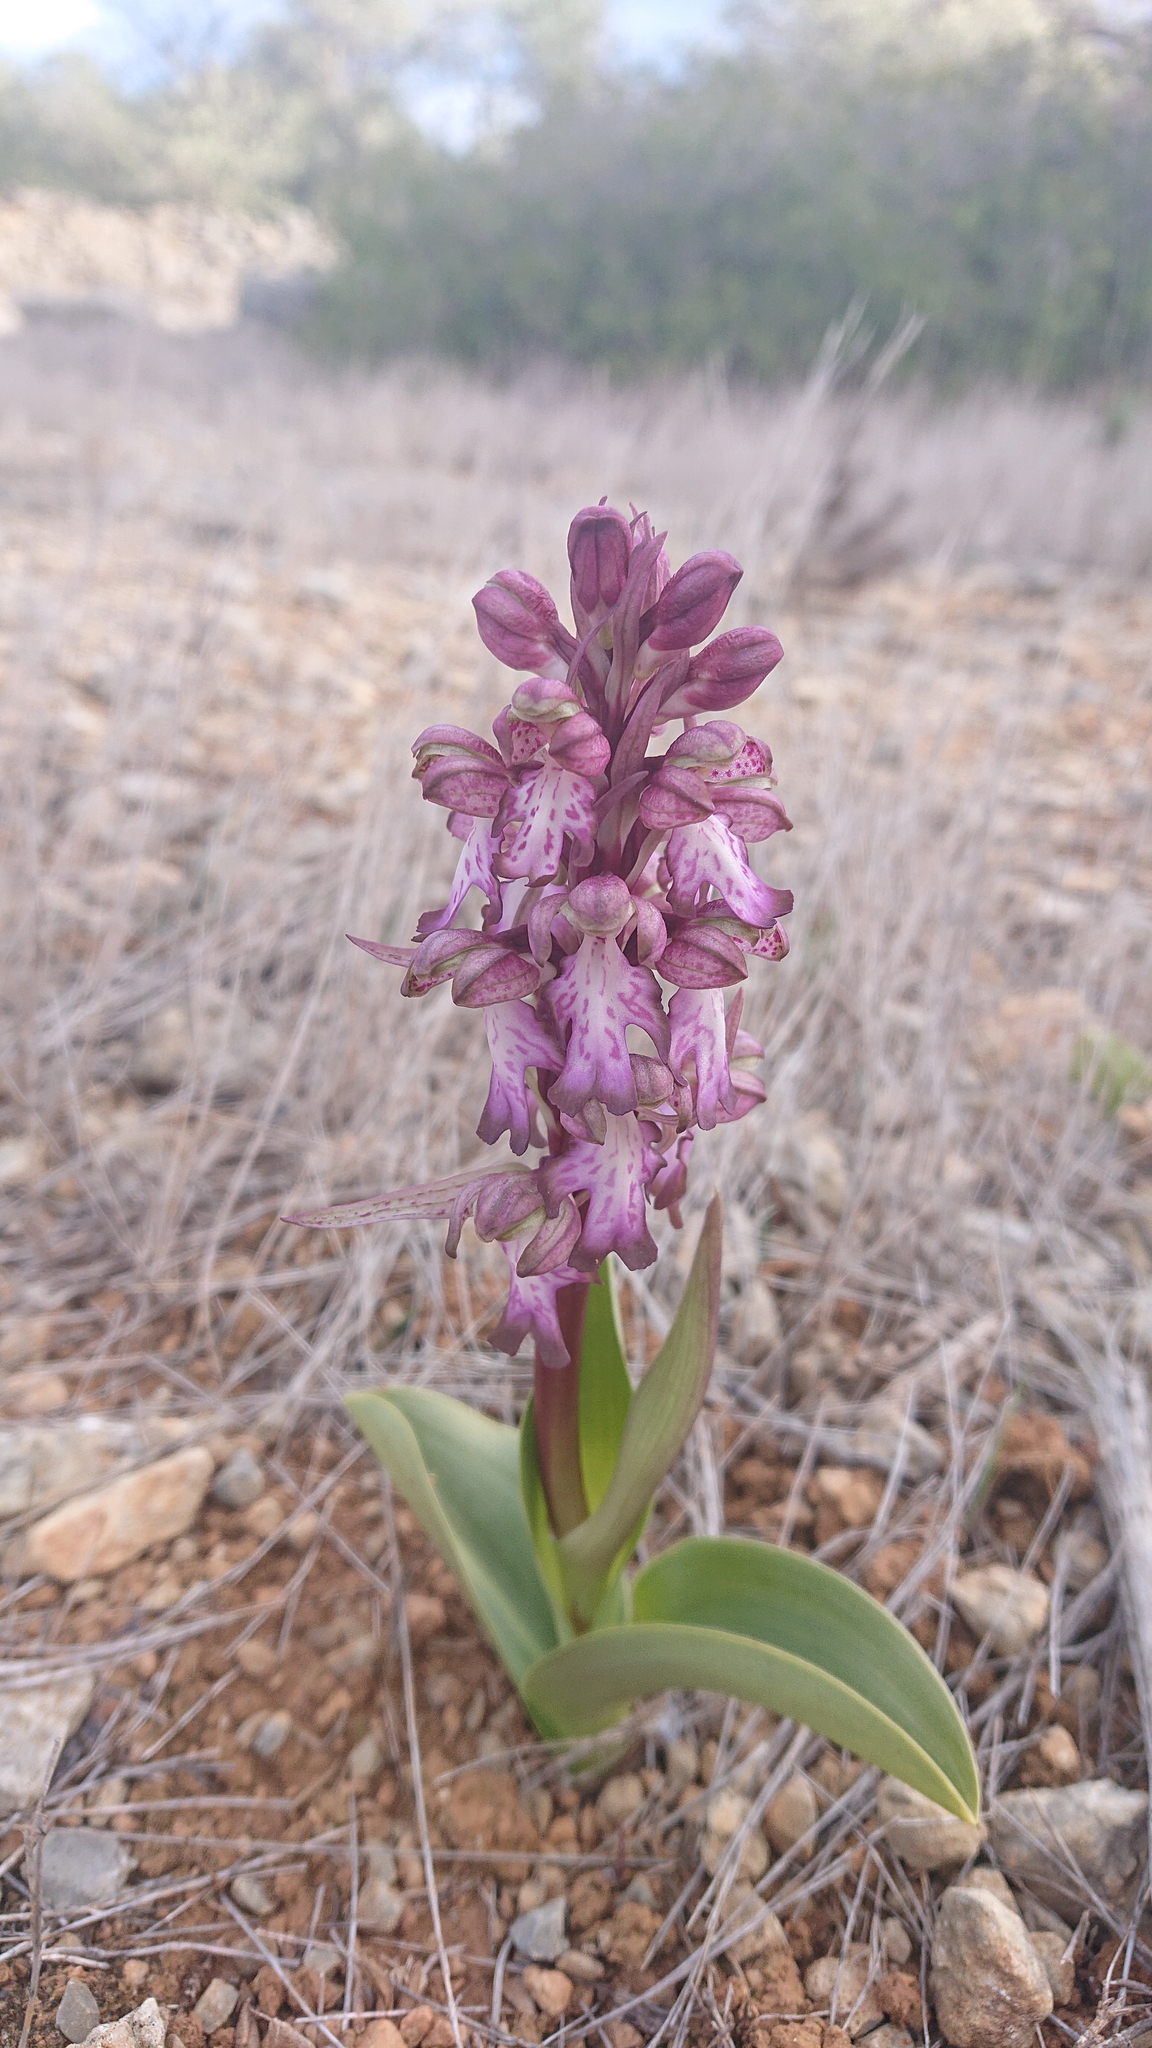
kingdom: Plantae
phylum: Tracheophyta
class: Liliopsida
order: Asparagales
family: Orchidaceae
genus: Himantoglossum
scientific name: Himantoglossum robertianum
